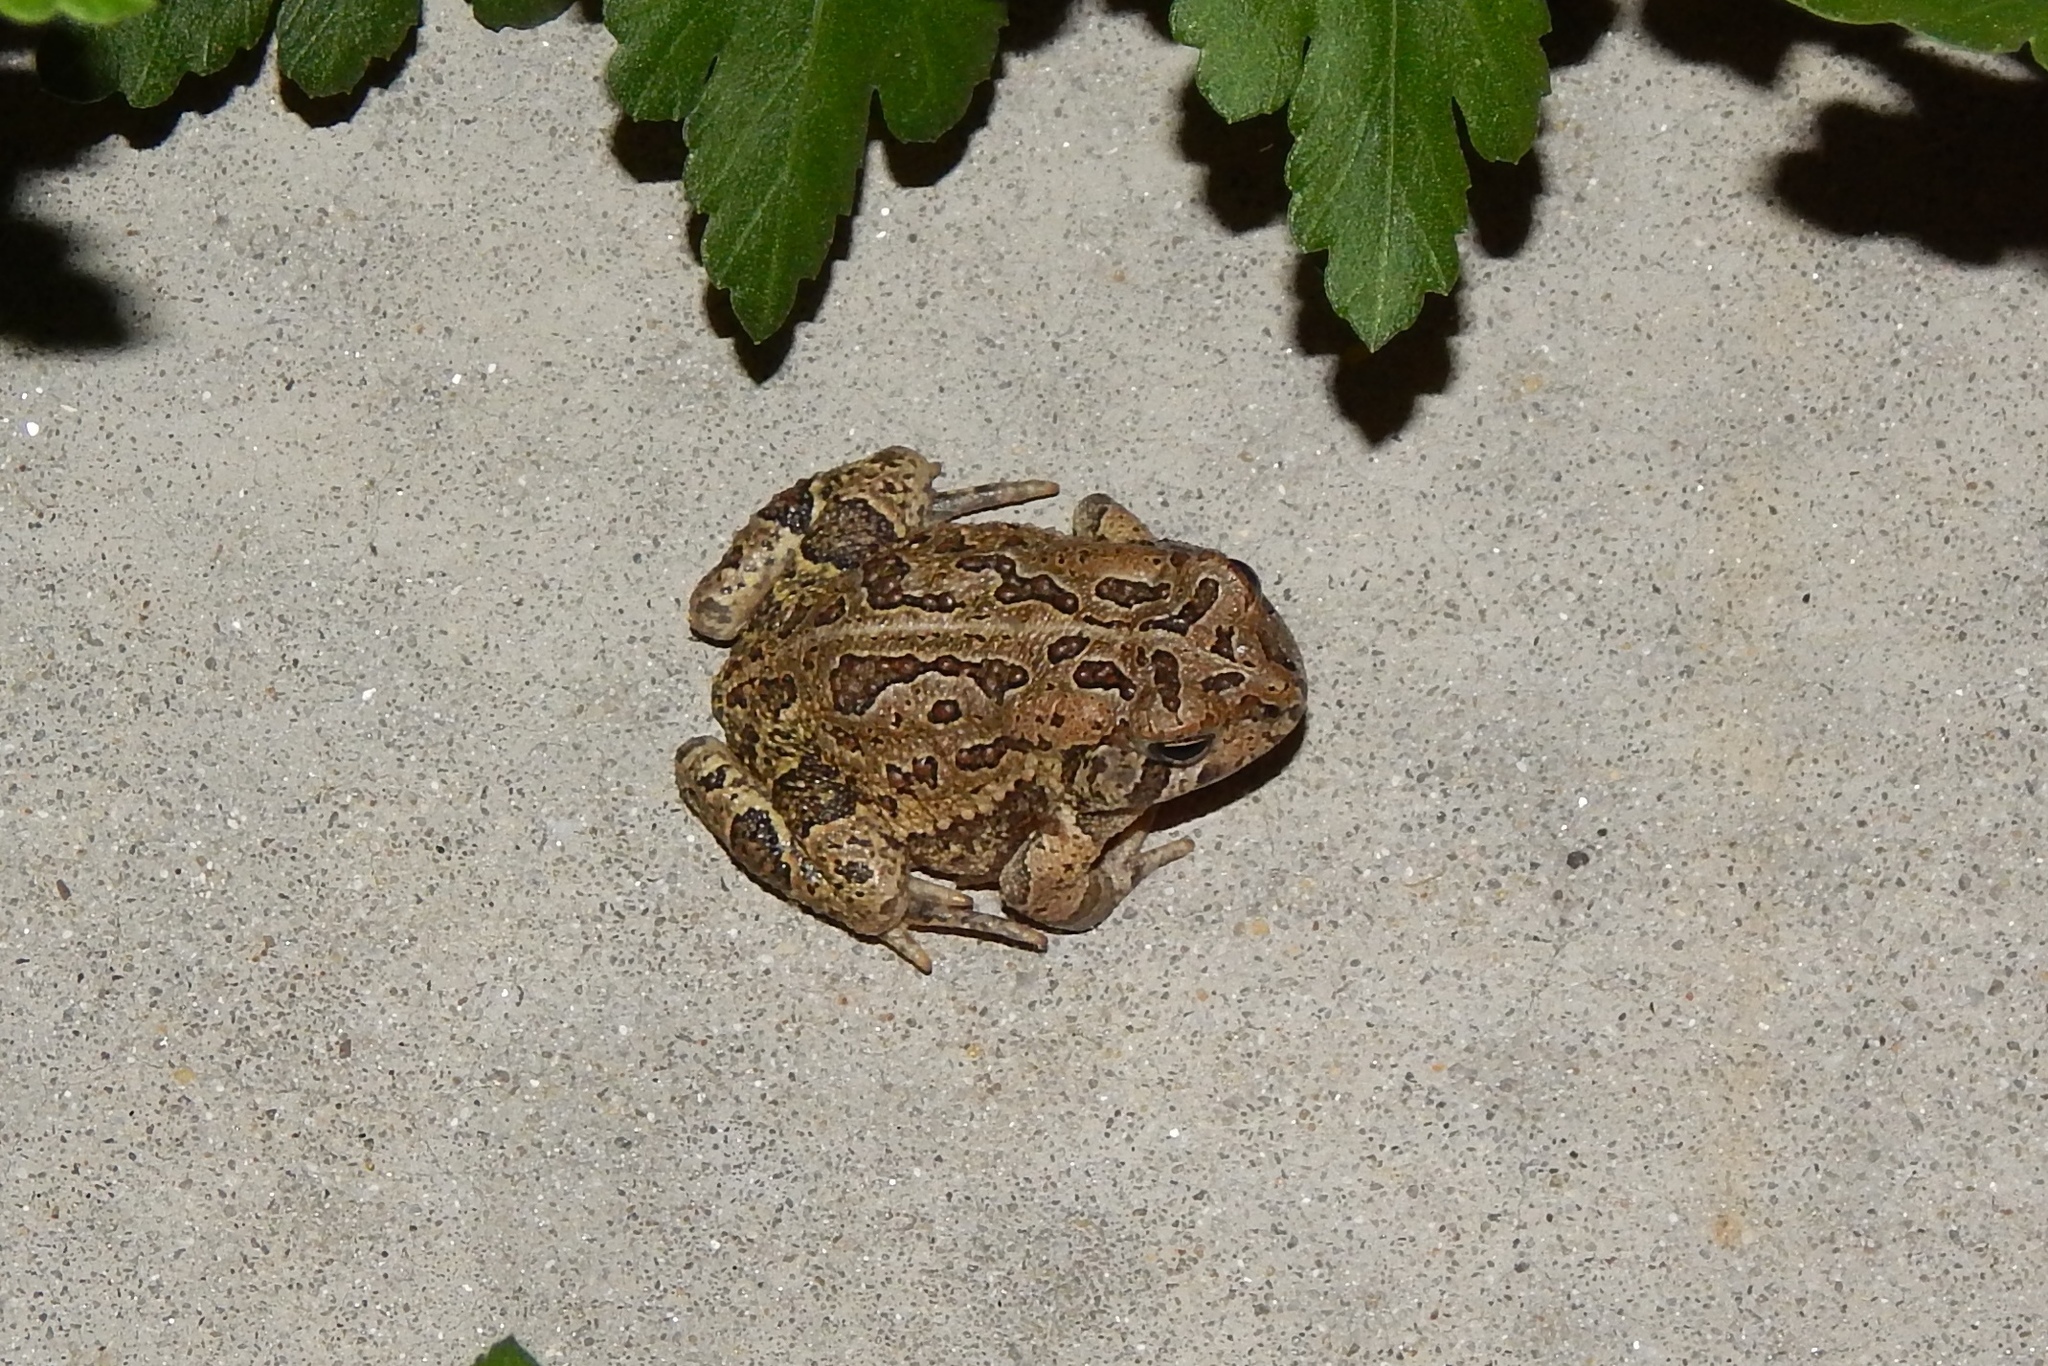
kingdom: Animalia
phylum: Chordata
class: Amphibia
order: Anura
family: Bufonidae
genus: Anaxyrus
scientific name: Anaxyrus fowleri
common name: Fowler's toad
